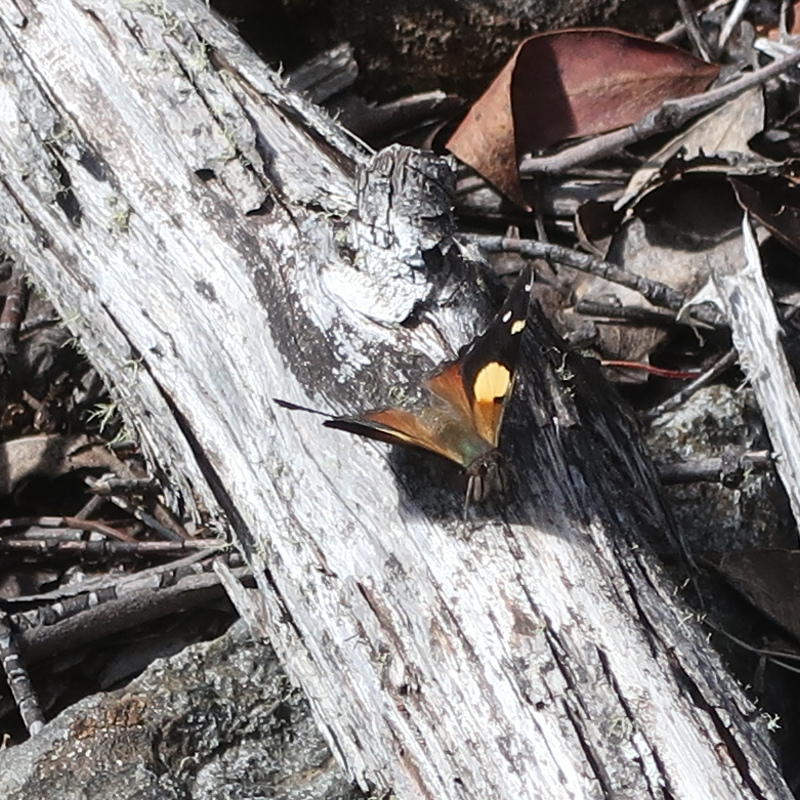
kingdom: Animalia
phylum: Arthropoda
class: Insecta
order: Lepidoptera
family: Nymphalidae
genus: Vanessa
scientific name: Vanessa itea
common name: Yellow admiral
